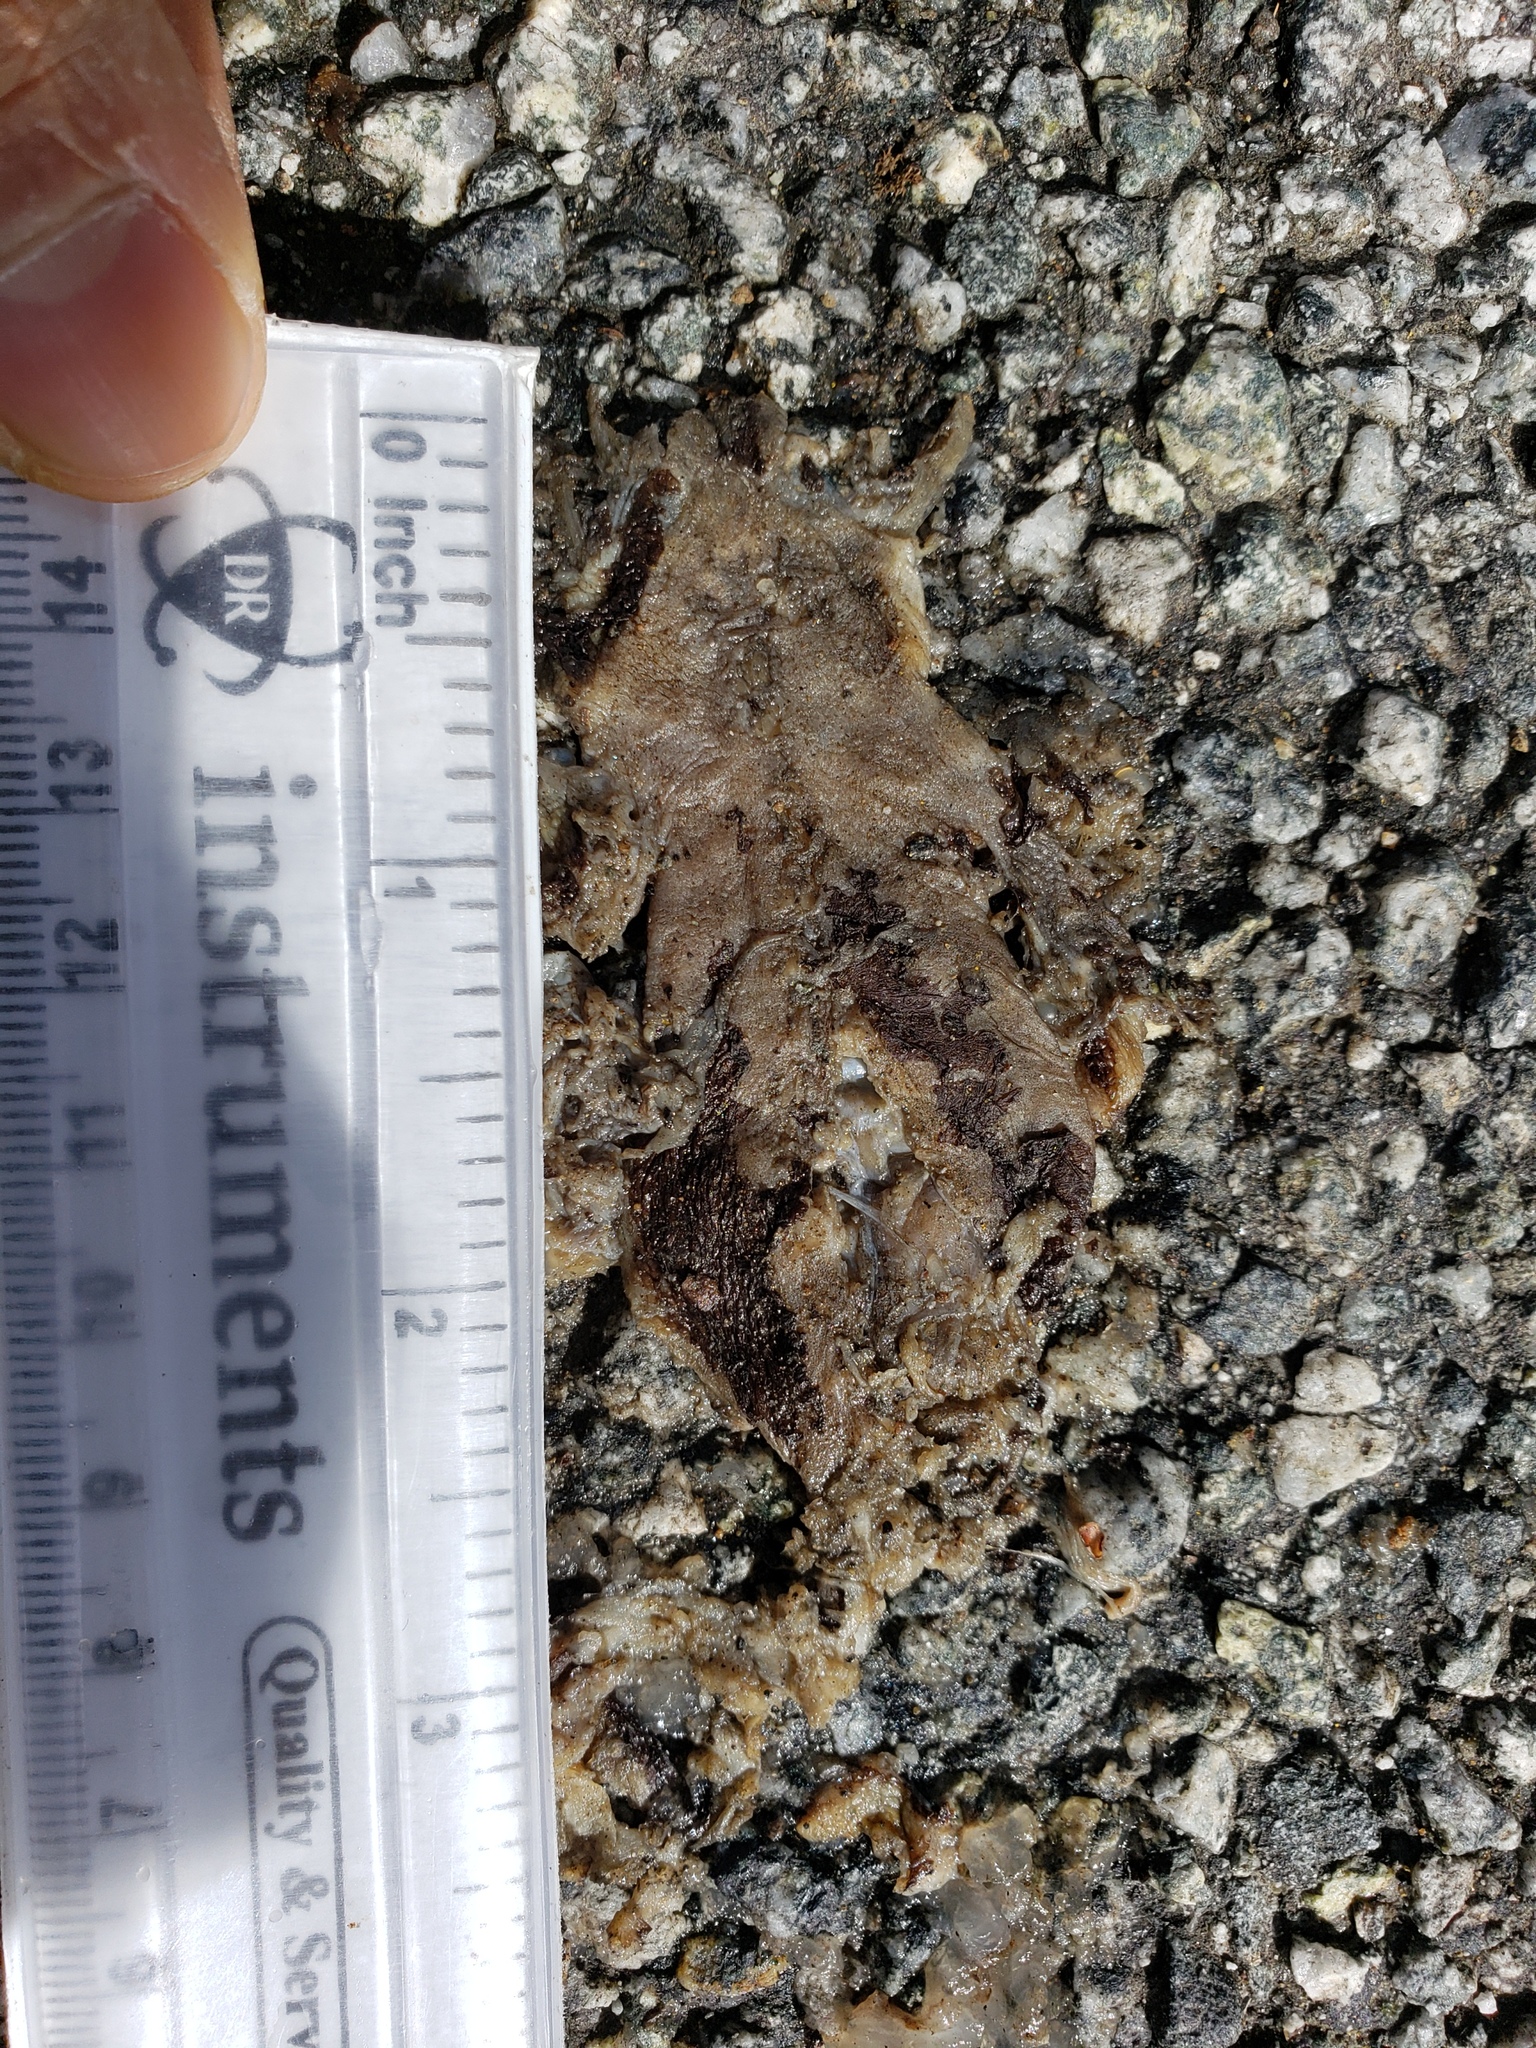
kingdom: Animalia
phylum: Chordata
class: Amphibia
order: Caudata
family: Salamandridae
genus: Taricha
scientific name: Taricha
